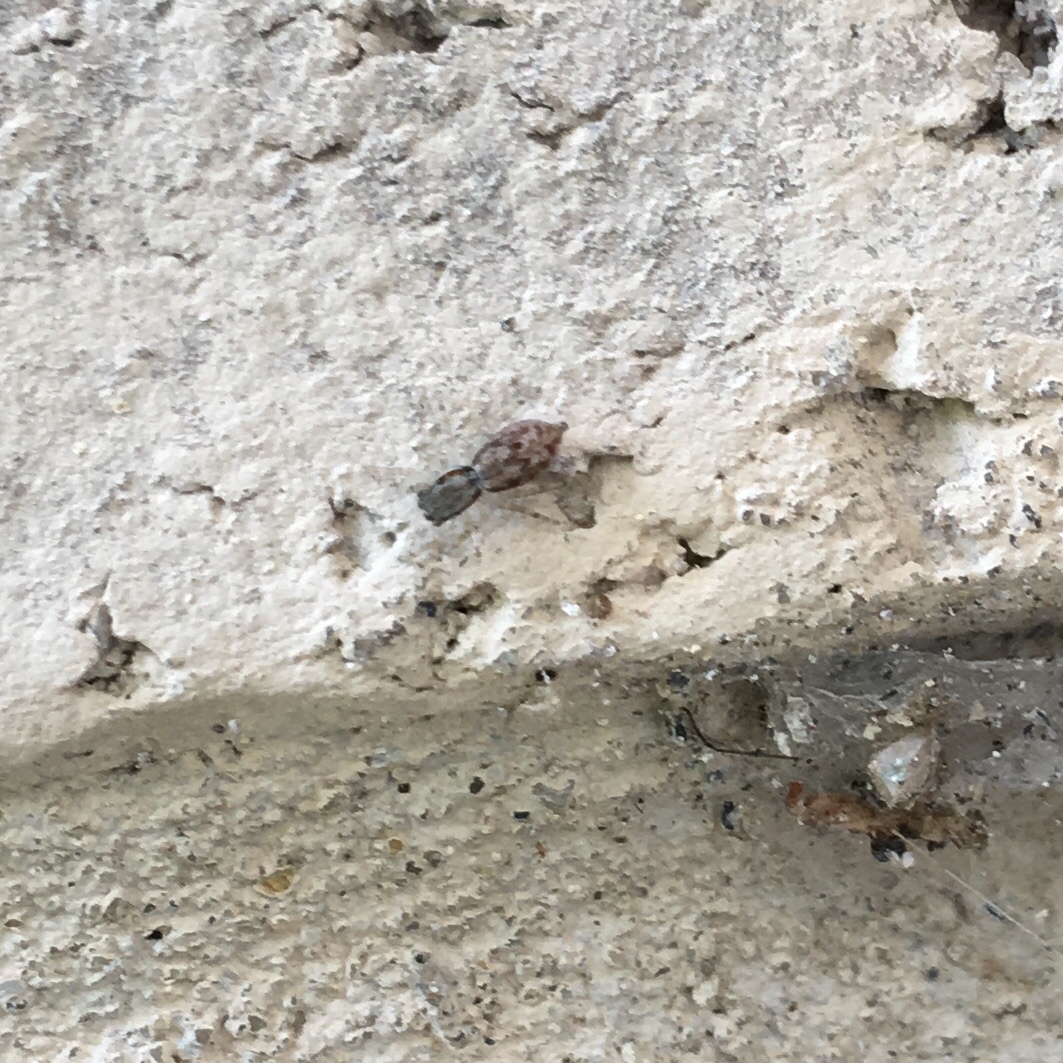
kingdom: Animalia
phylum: Arthropoda
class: Arachnida
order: Araneae
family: Salticidae
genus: Menemerus
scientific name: Menemerus bivittatus
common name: Gray wall jumper
